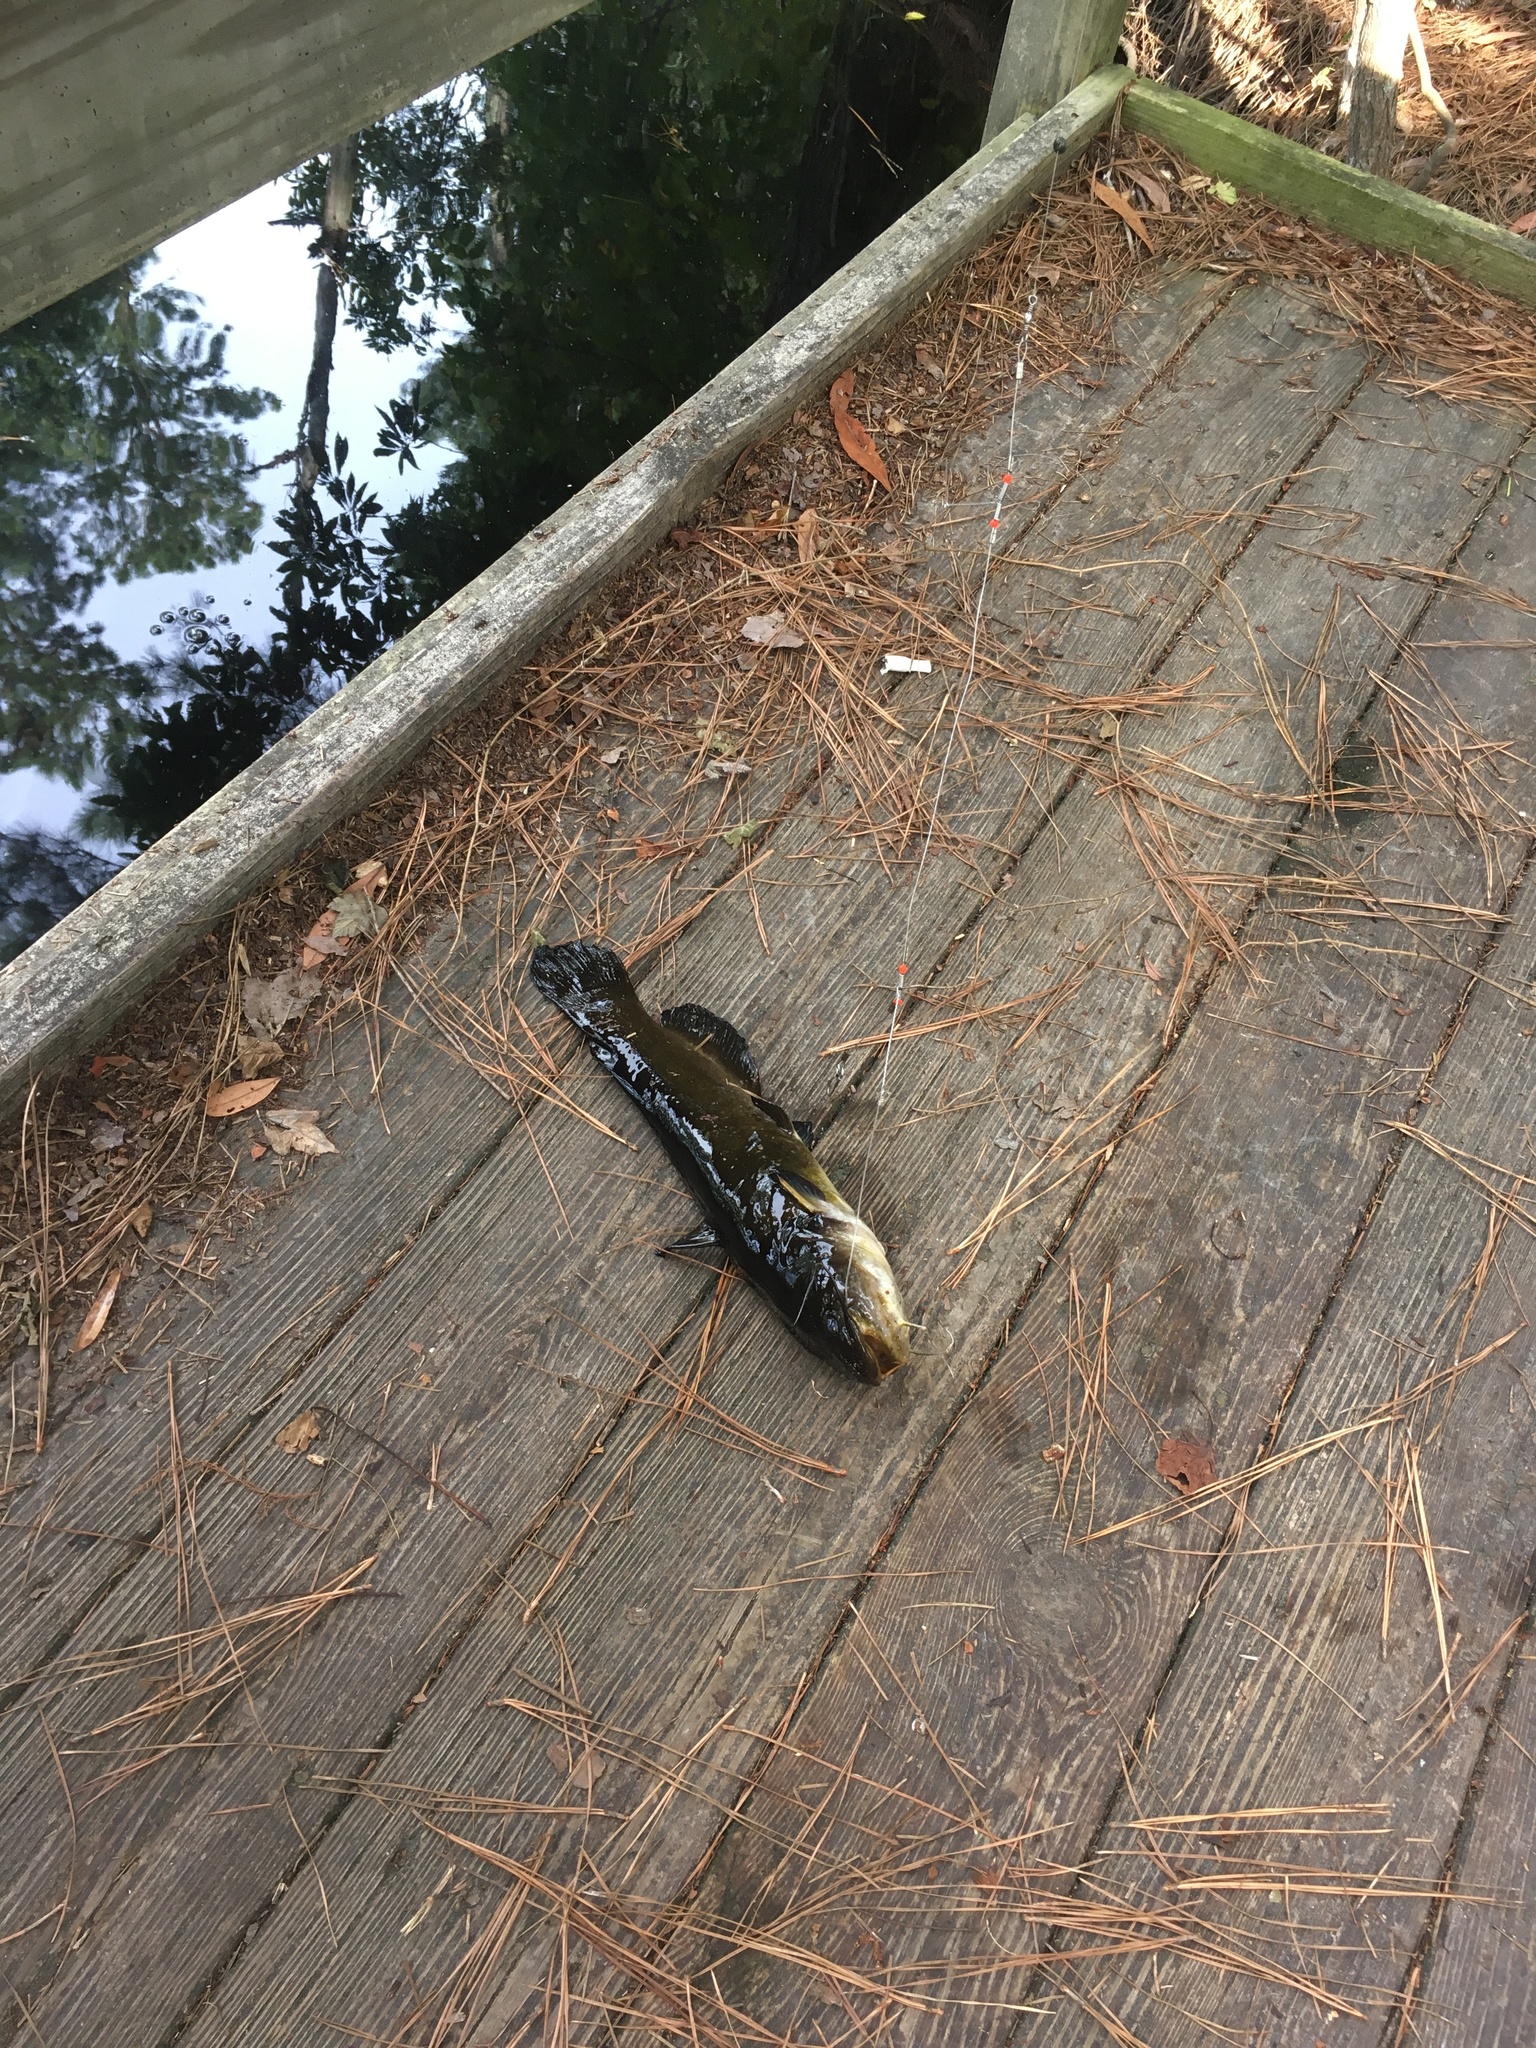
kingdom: Animalia
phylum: Chordata
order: Siluriformes
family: Ictaluridae
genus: Ameiurus
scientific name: Ameiurus natalis
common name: Yellow bullhead
